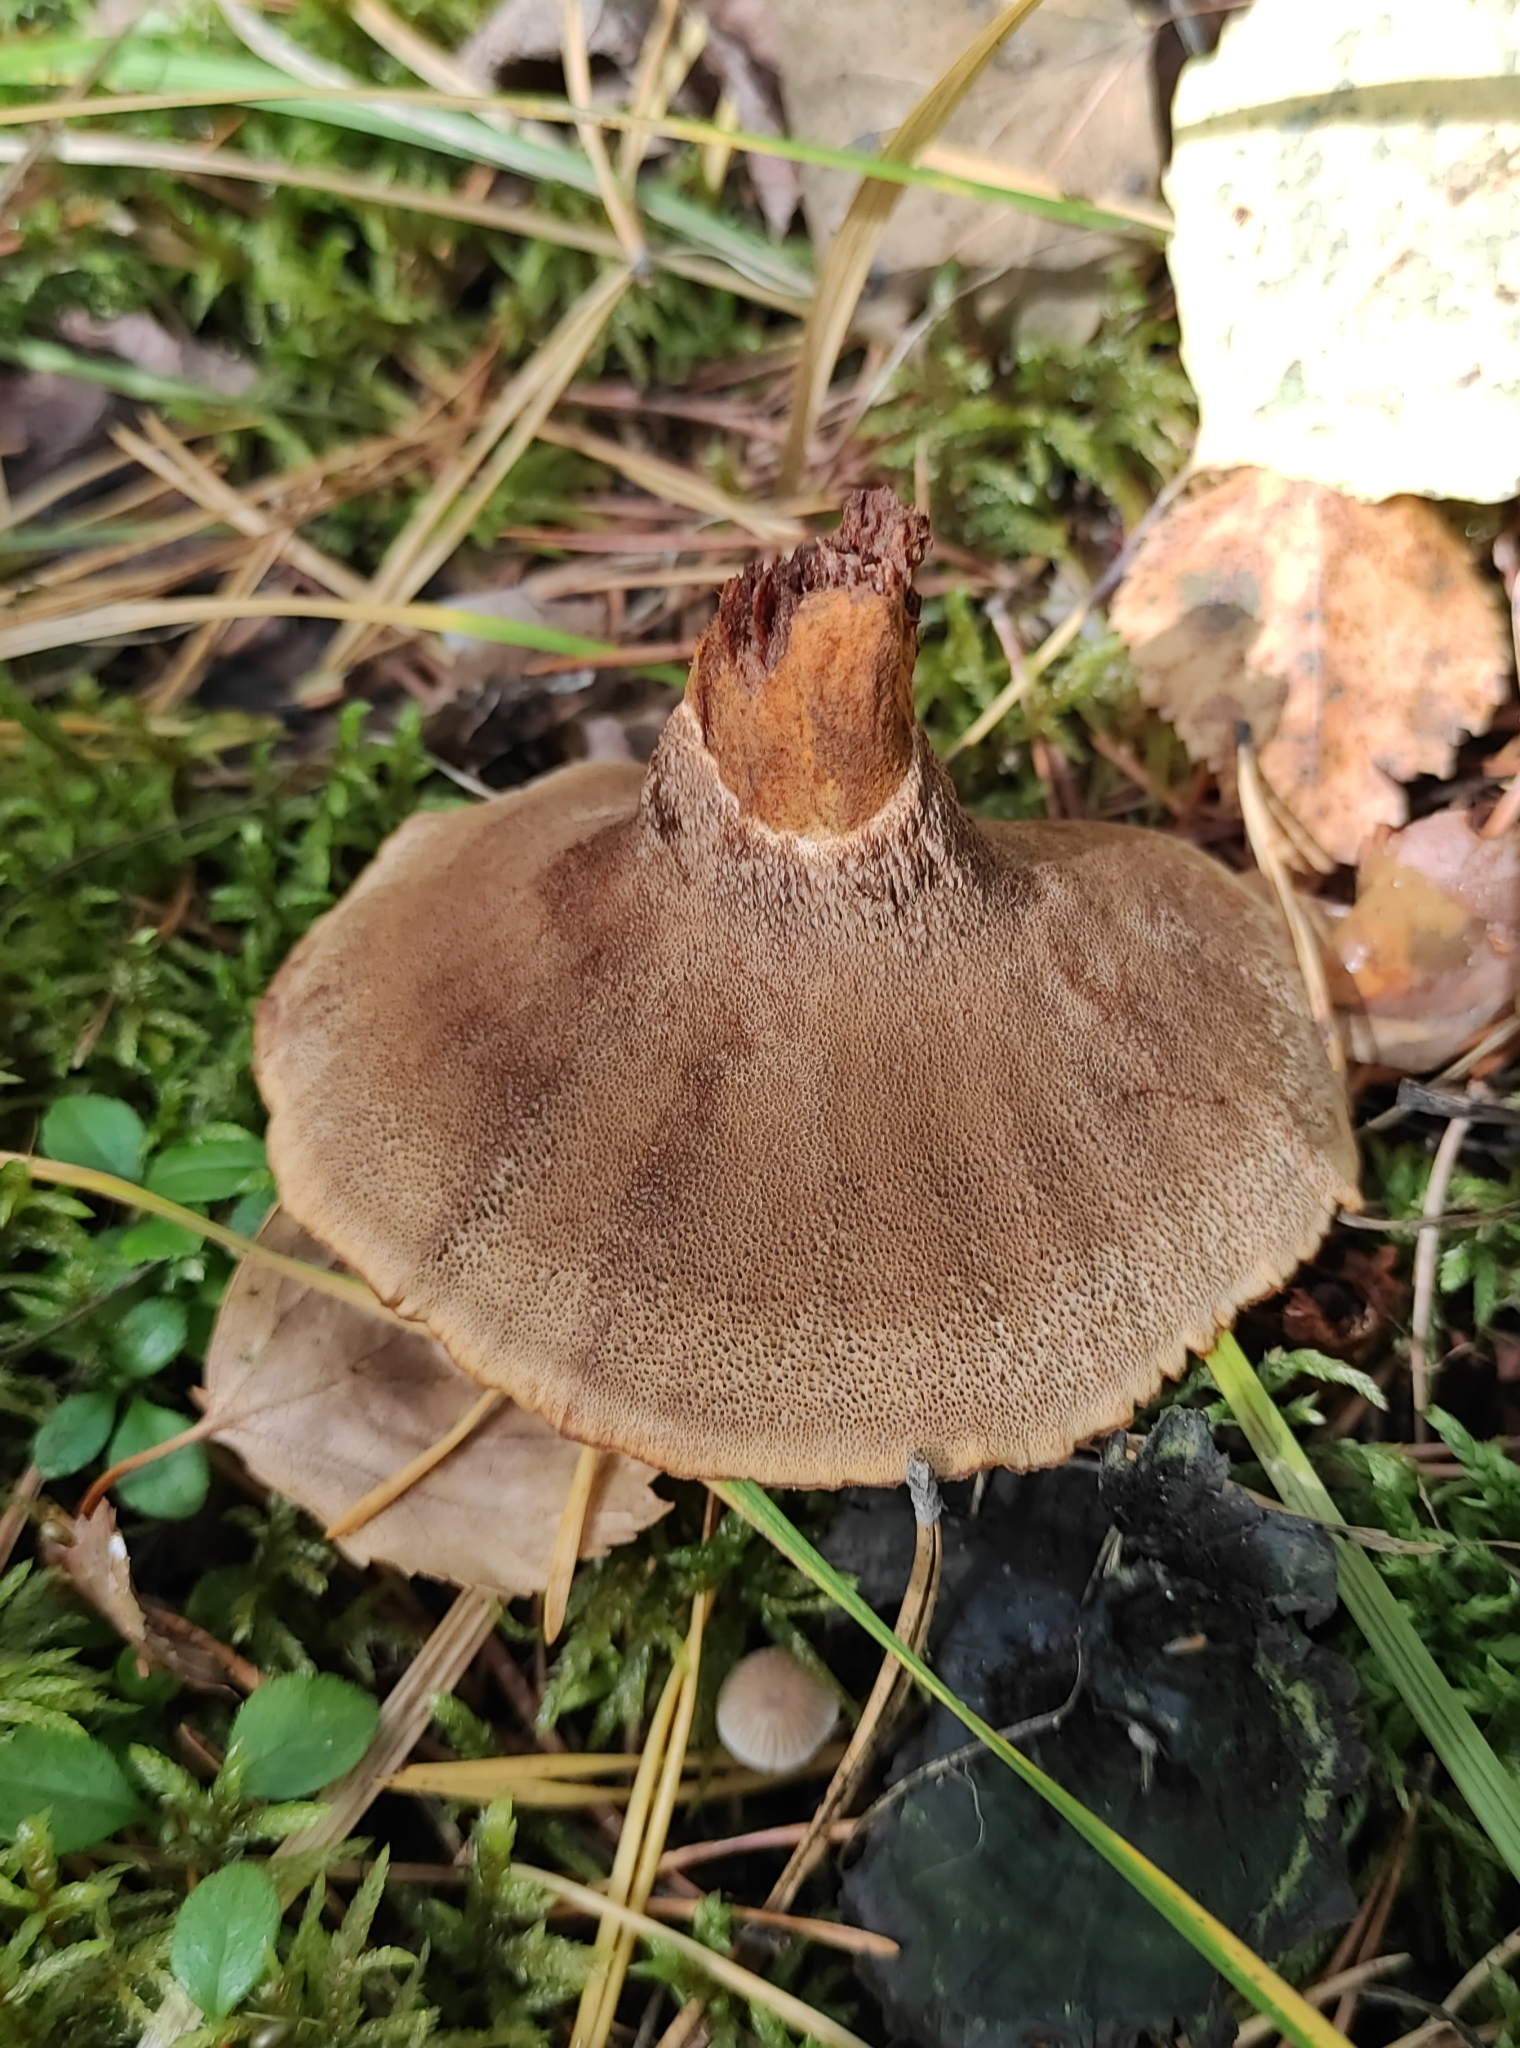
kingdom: Fungi
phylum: Basidiomycota
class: Agaricomycetes
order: Hymenochaetales
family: Hymenochaetaceae
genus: Coltricia
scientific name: Coltricia perennis
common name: Tiger's eye
